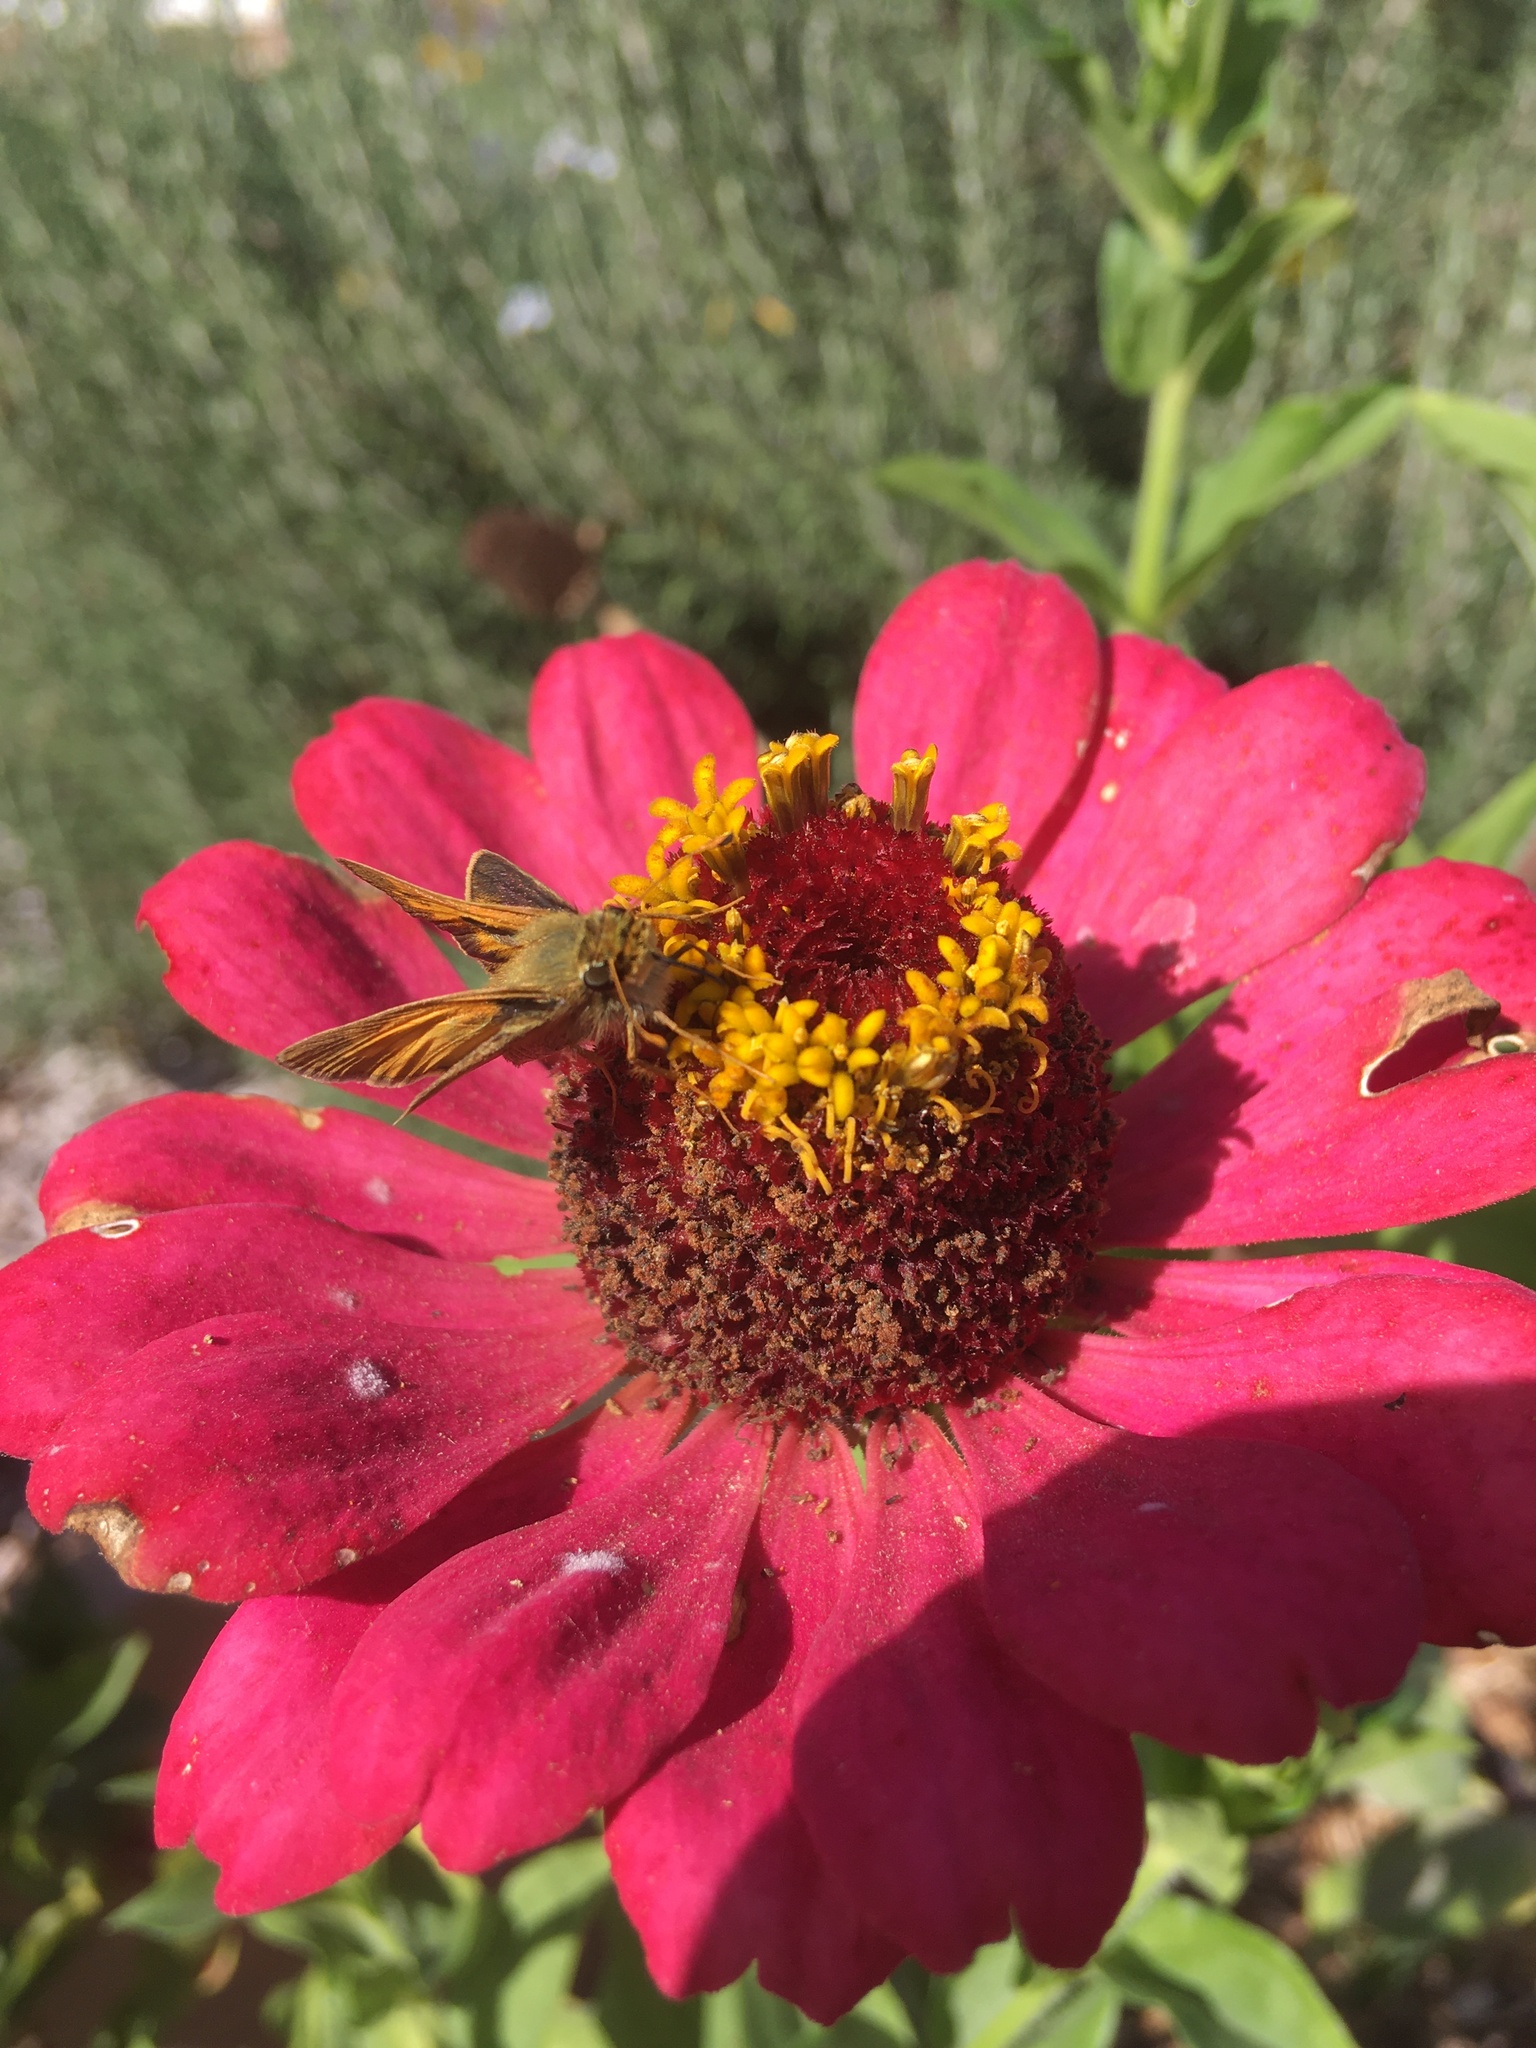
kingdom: Animalia
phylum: Arthropoda
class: Insecta
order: Lepidoptera
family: Hesperiidae
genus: Atalopedes
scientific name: Atalopedes
